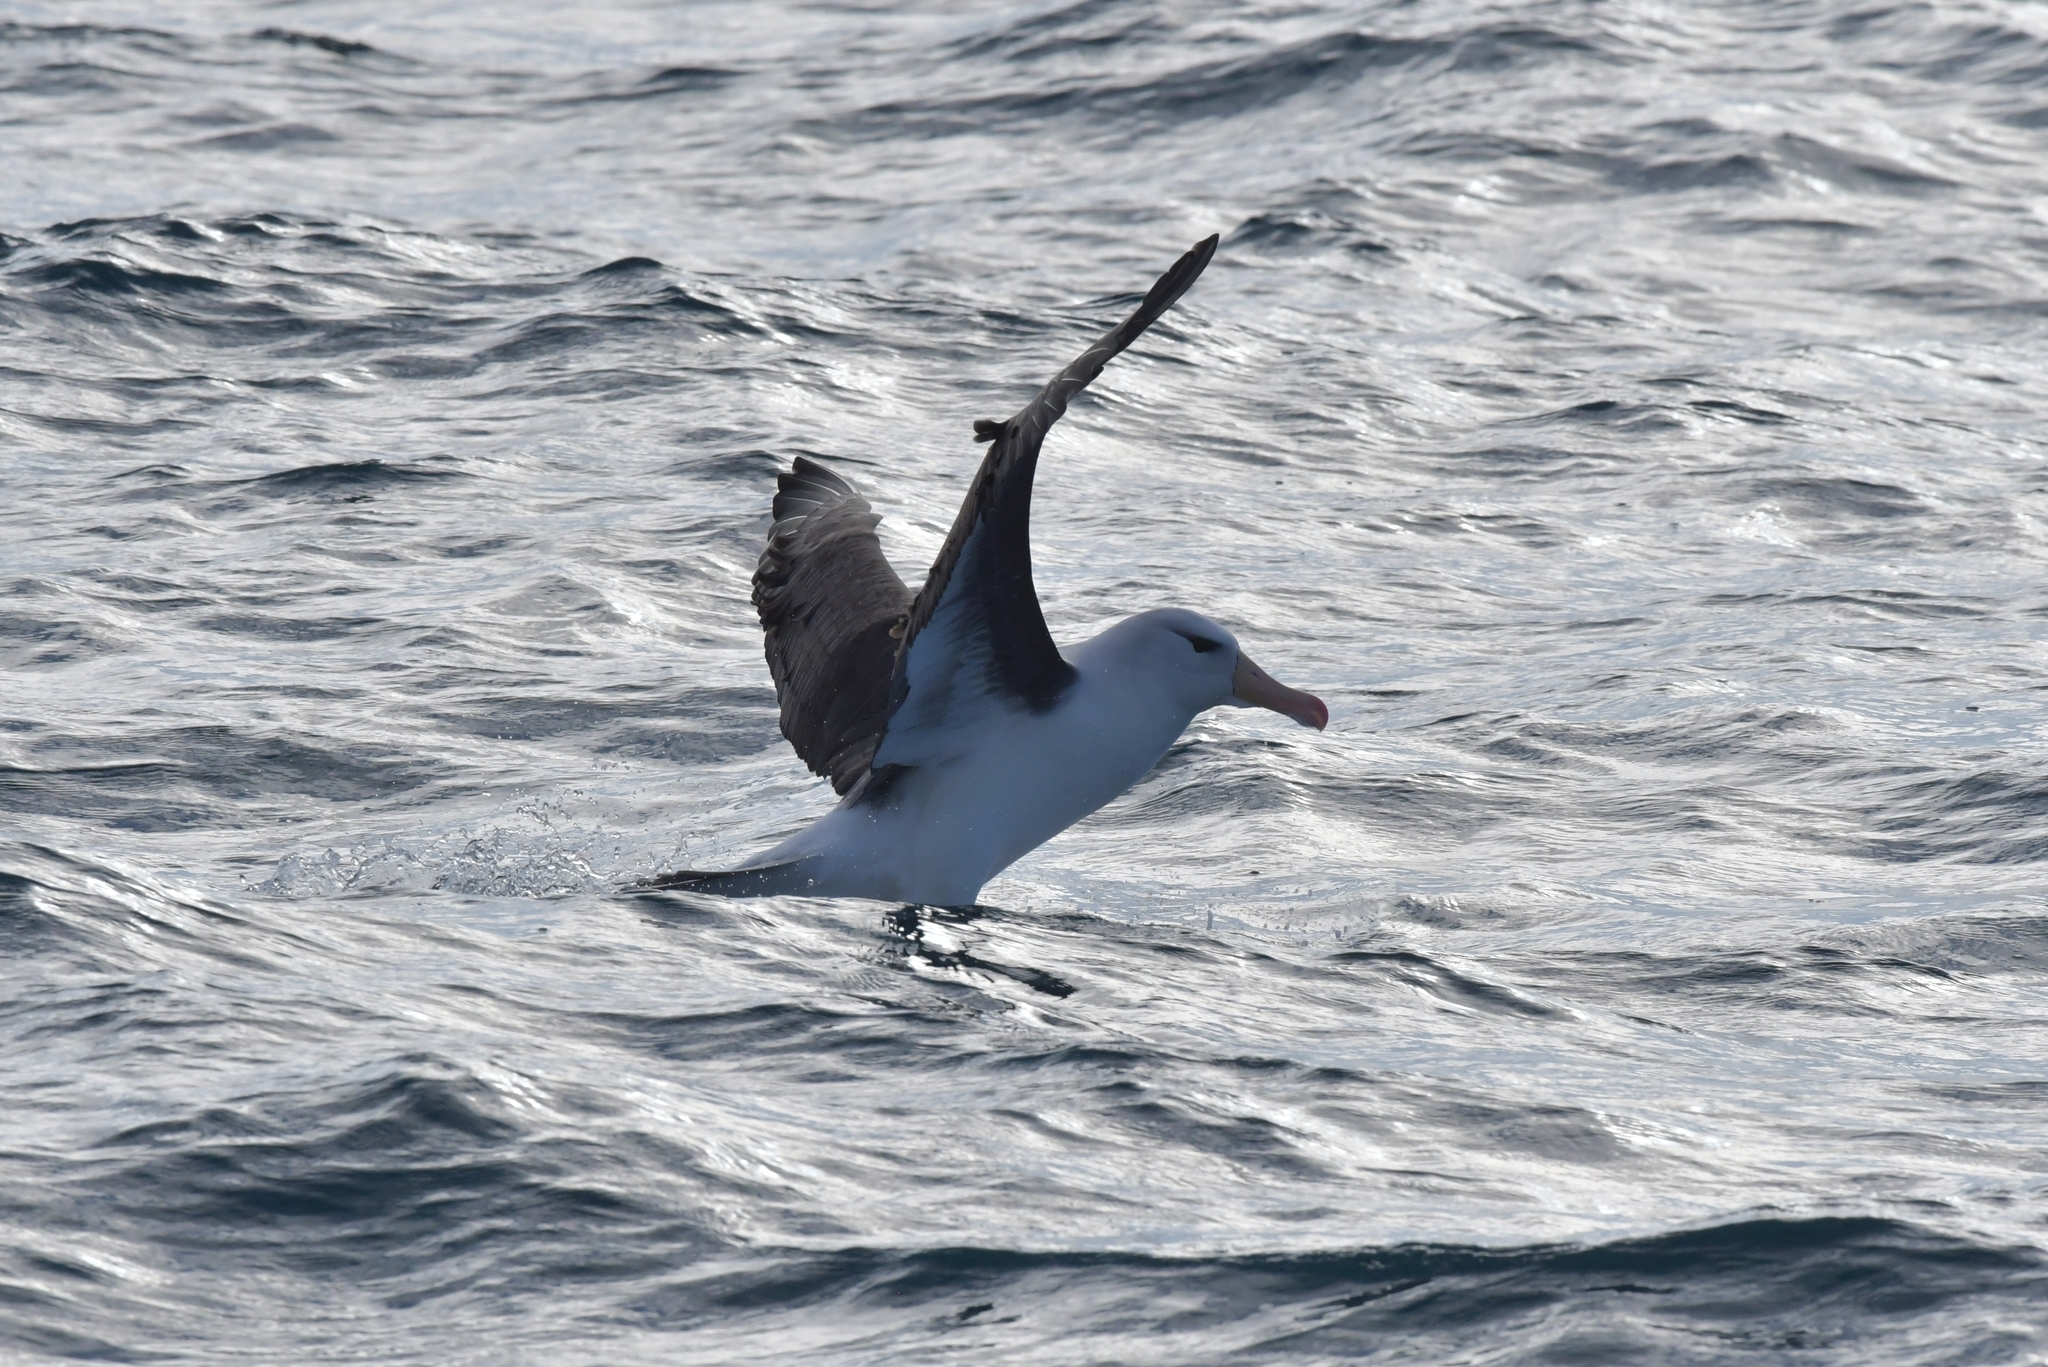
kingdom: Animalia
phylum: Chordata
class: Aves
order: Procellariiformes
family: Diomedeidae
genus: Thalassarche
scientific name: Thalassarche melanophris
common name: Black-browed albatross
